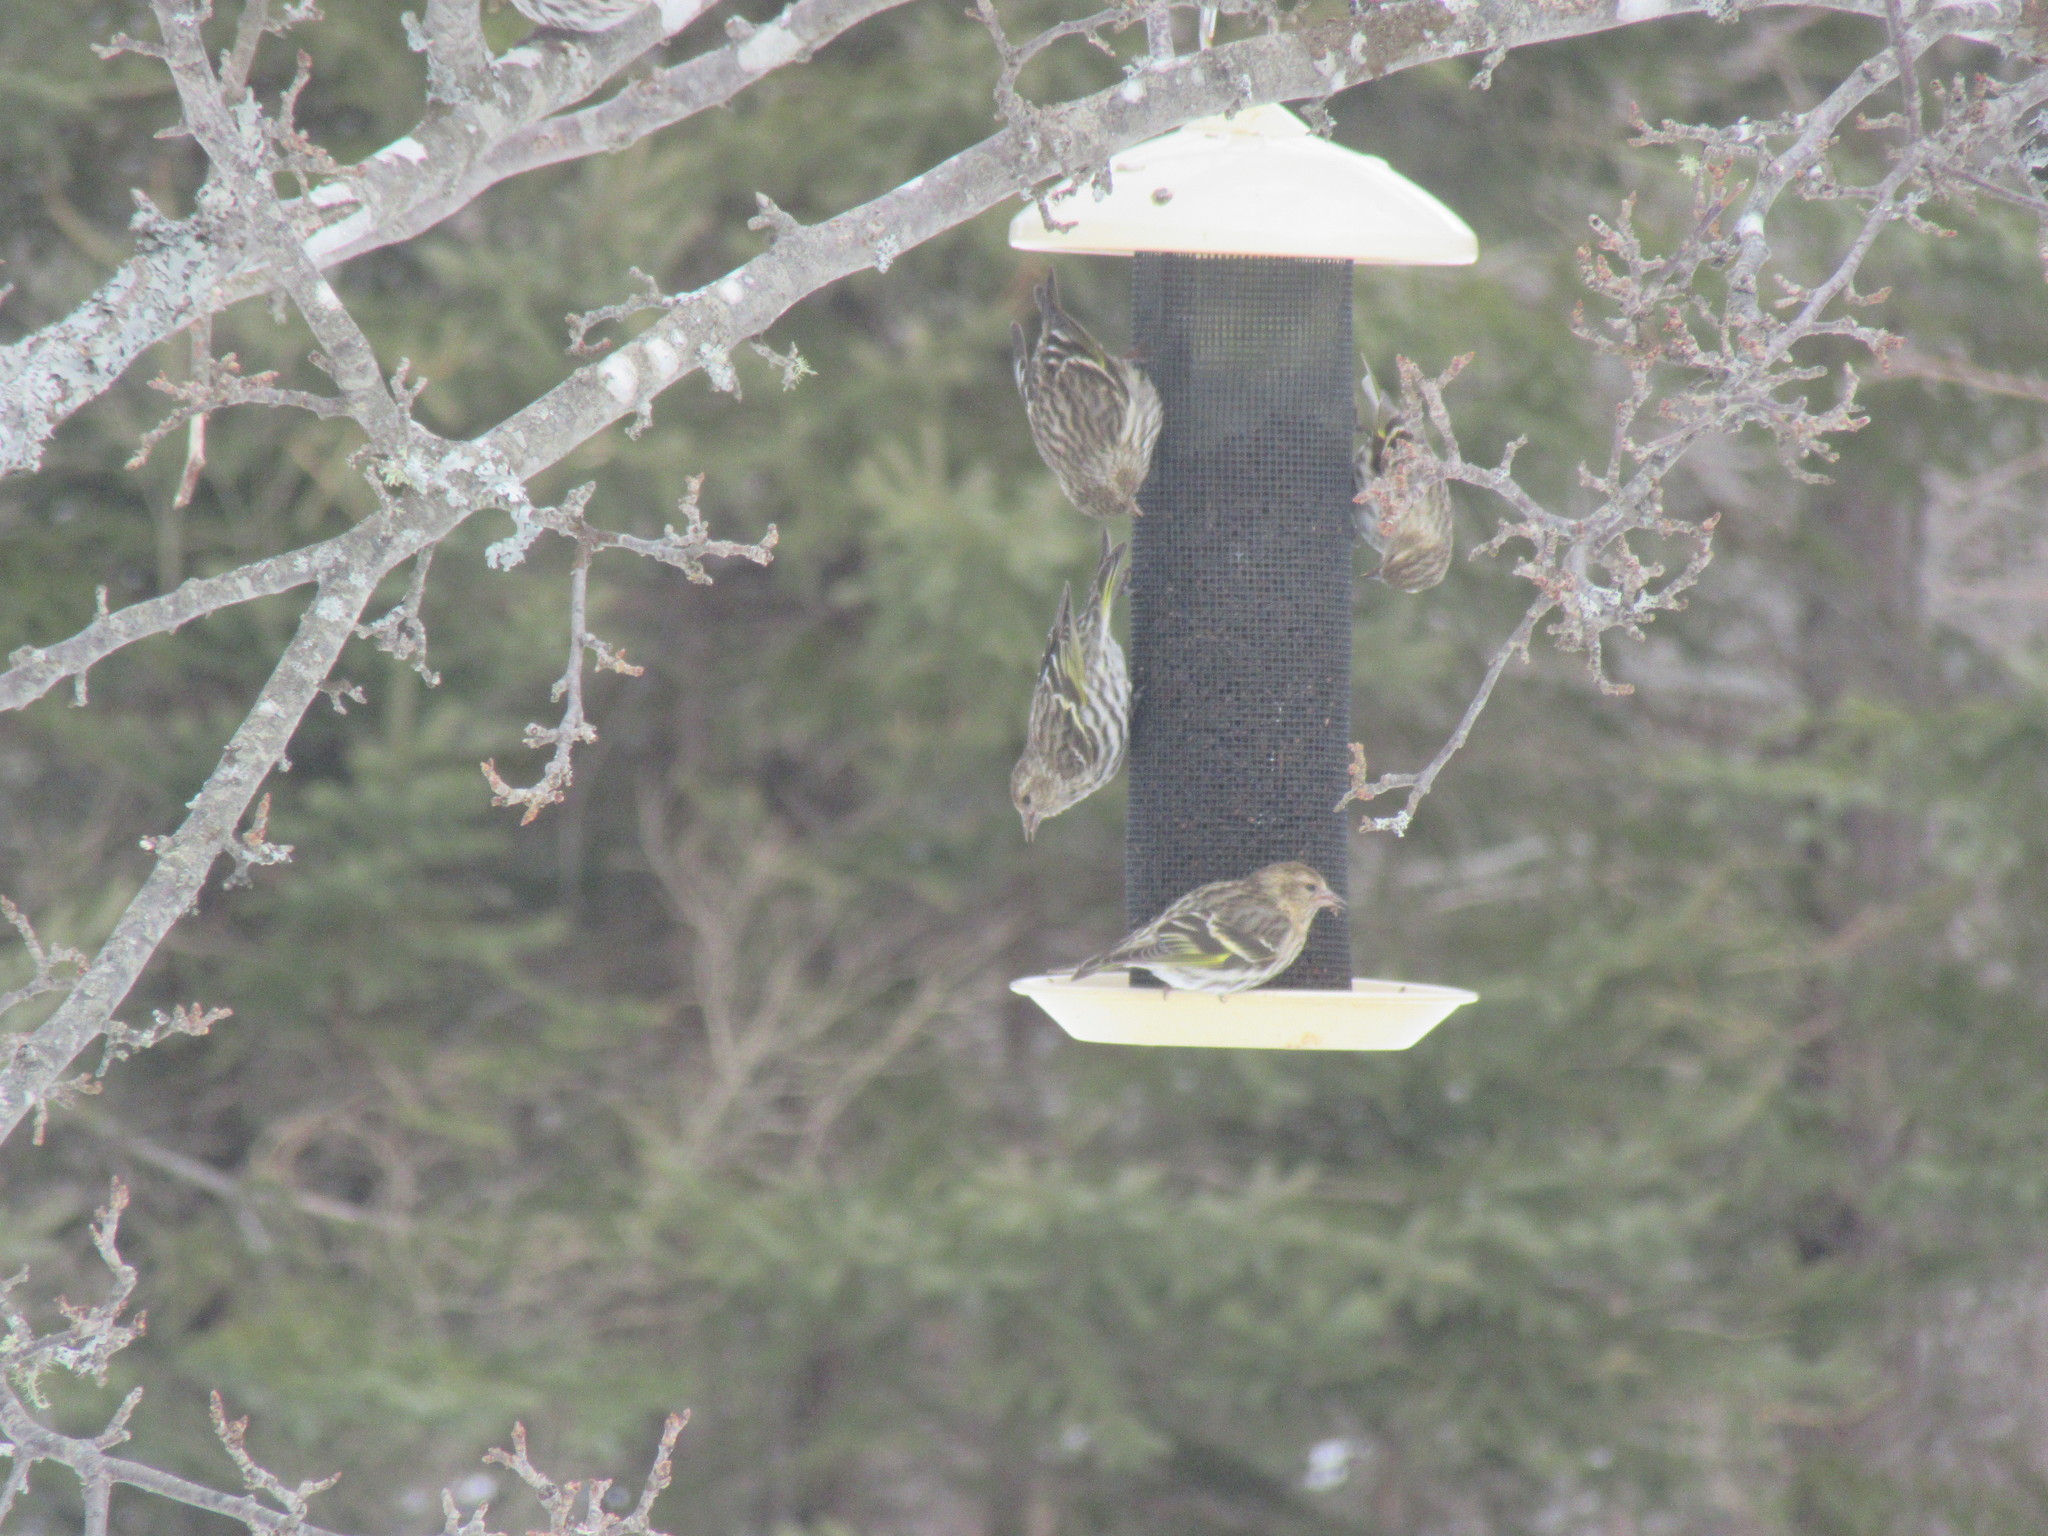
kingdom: Animalia
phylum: Chordata
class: Aves
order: Passeriformes
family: Fringillidae
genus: Spinus
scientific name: Spinus pinus
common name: Pine siskin
